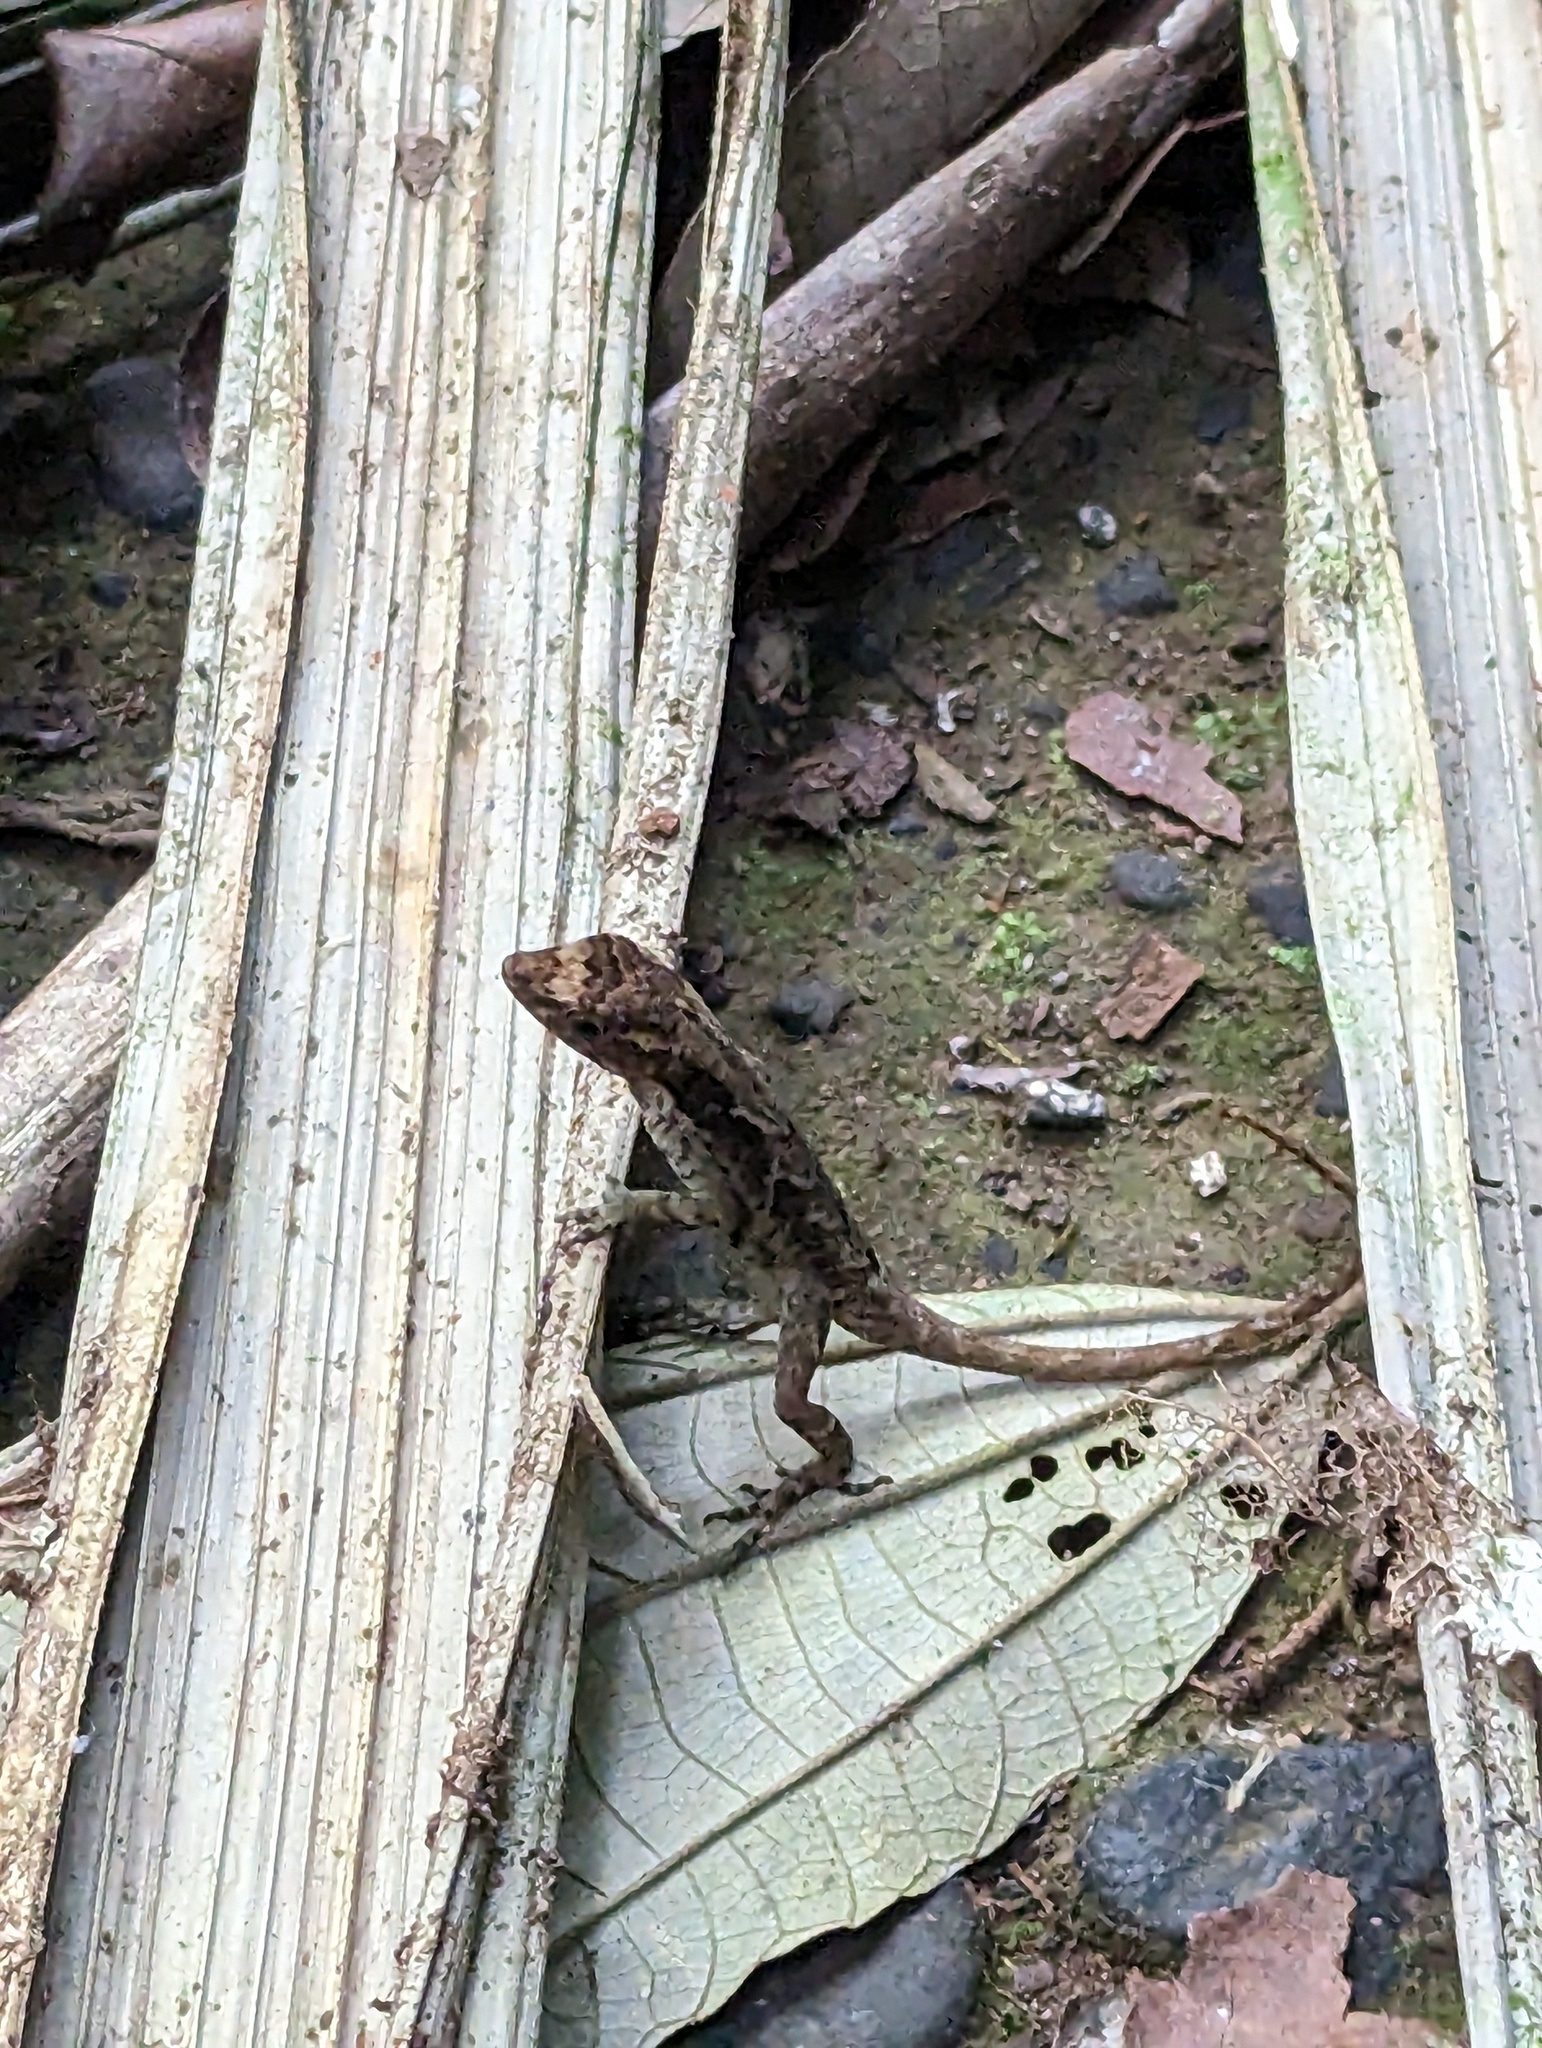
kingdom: Animalia
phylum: Chordata
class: Squamata
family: Dactyloidae
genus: Anolis
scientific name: Anolis humilis
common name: Humble anole
